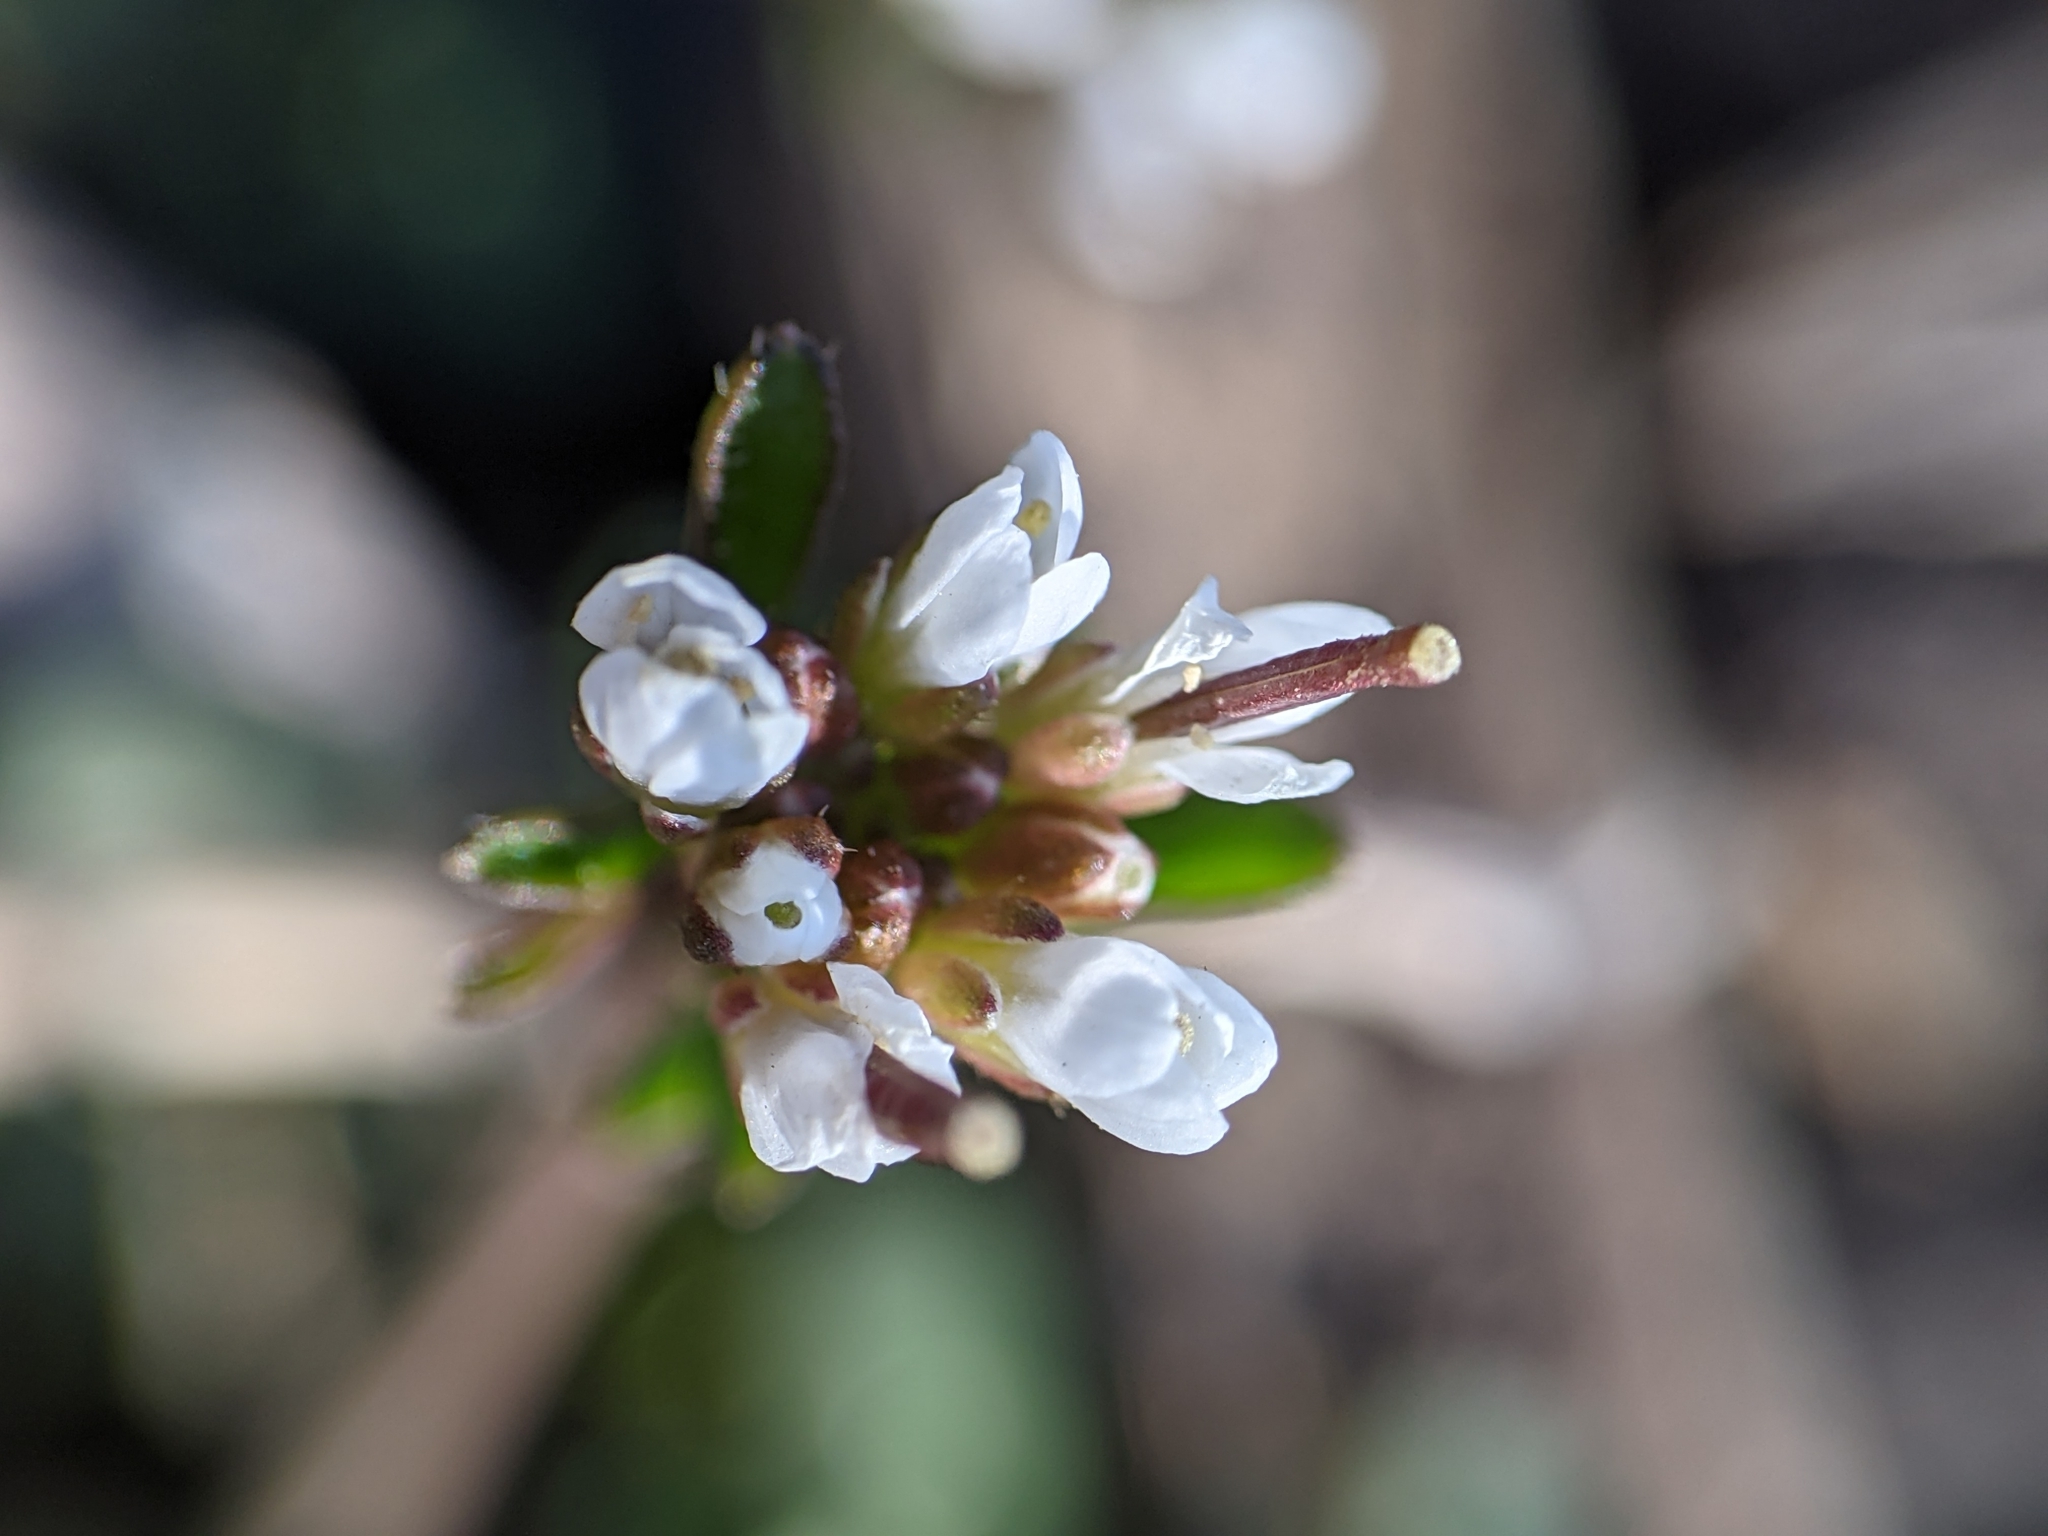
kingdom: Plantae
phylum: Tracheophyta
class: Magnoliopsida
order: Brassicales
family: Brassicaceae
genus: Cardamine
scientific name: Cardamine hirsuta
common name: Hairy bittercress
